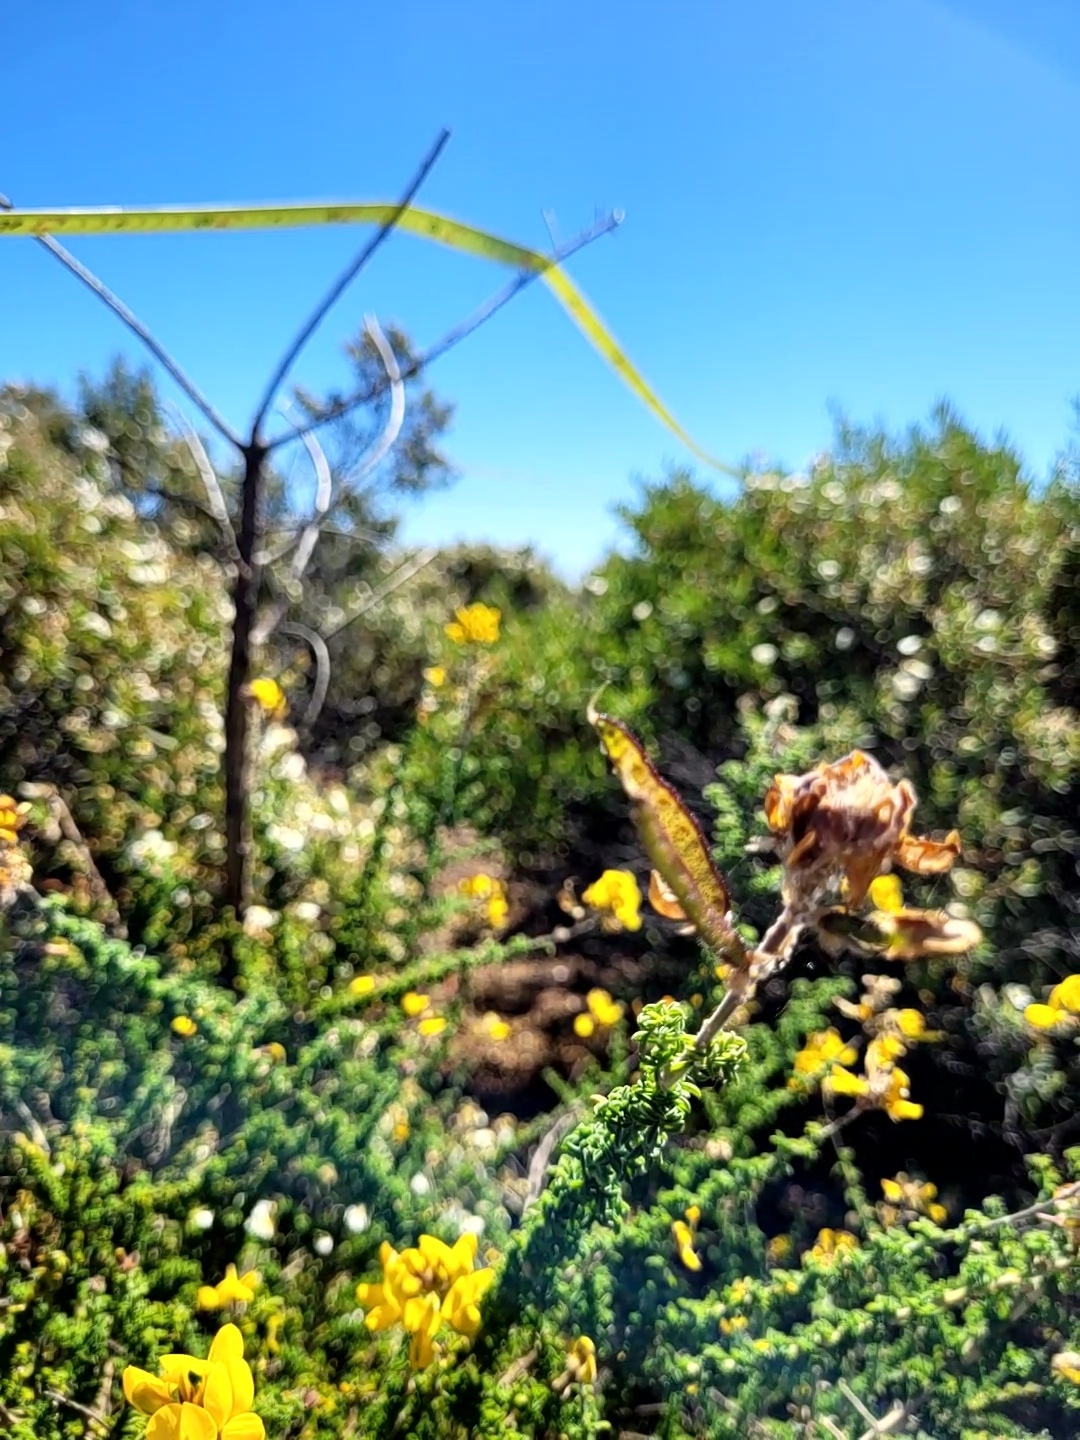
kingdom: Plantae
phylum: Tracheophyta
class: Magnoliopsida
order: Fabales
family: Fabaceae
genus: Adenocarpus
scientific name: Adenocarpus foliolosus
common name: Canary island flatpod
